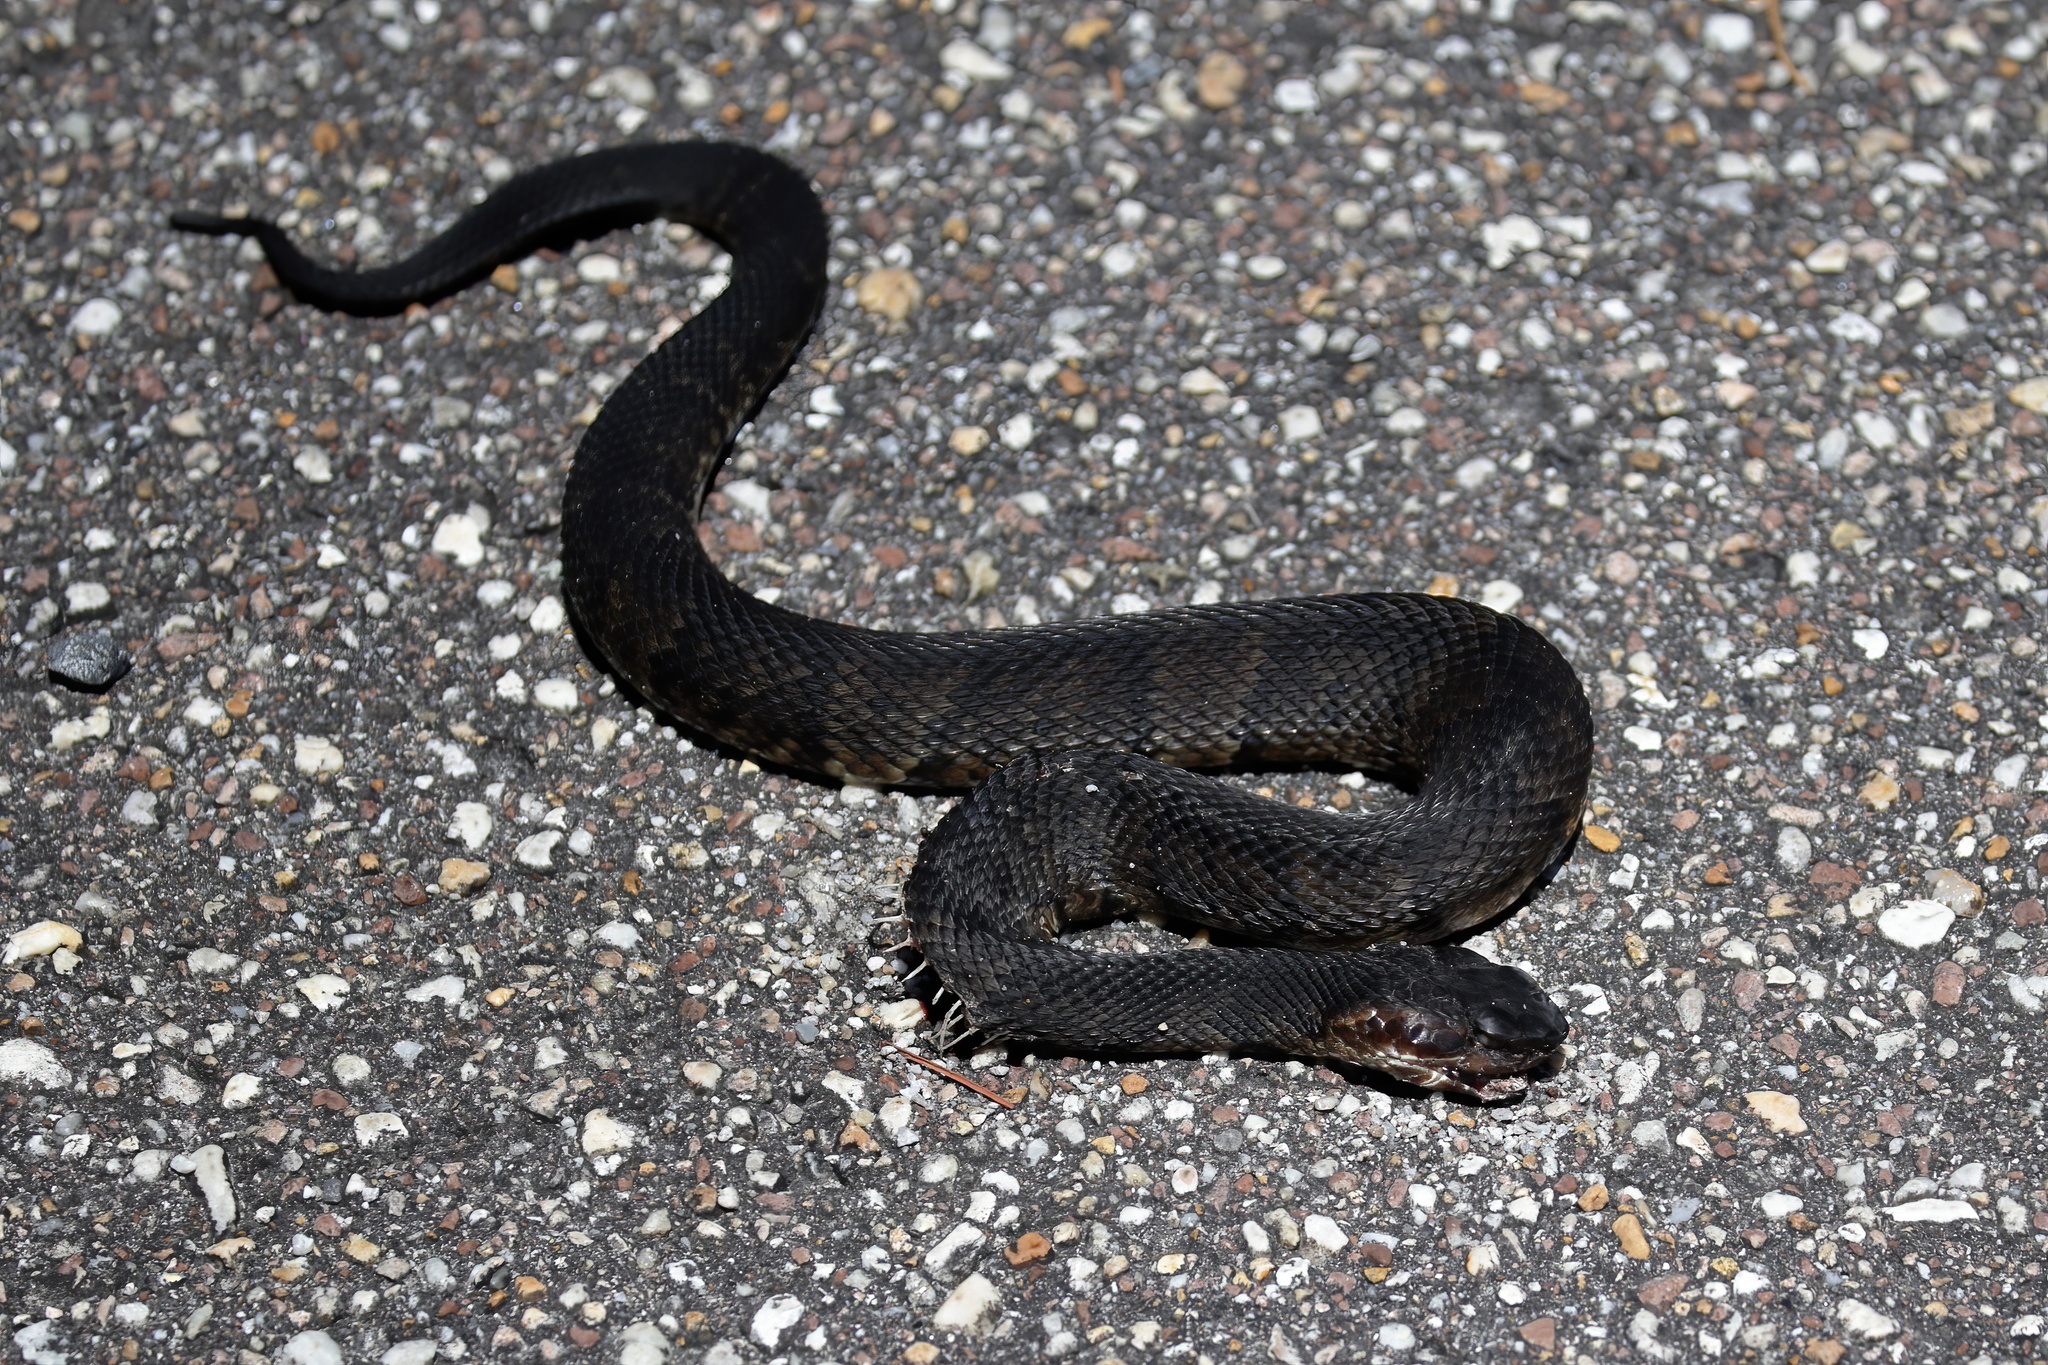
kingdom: Animalia
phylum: Chordata
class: Squamata
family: Viperidae
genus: Agkistrodon
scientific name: Agkistrodon piscivorus
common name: Cottonmouth
